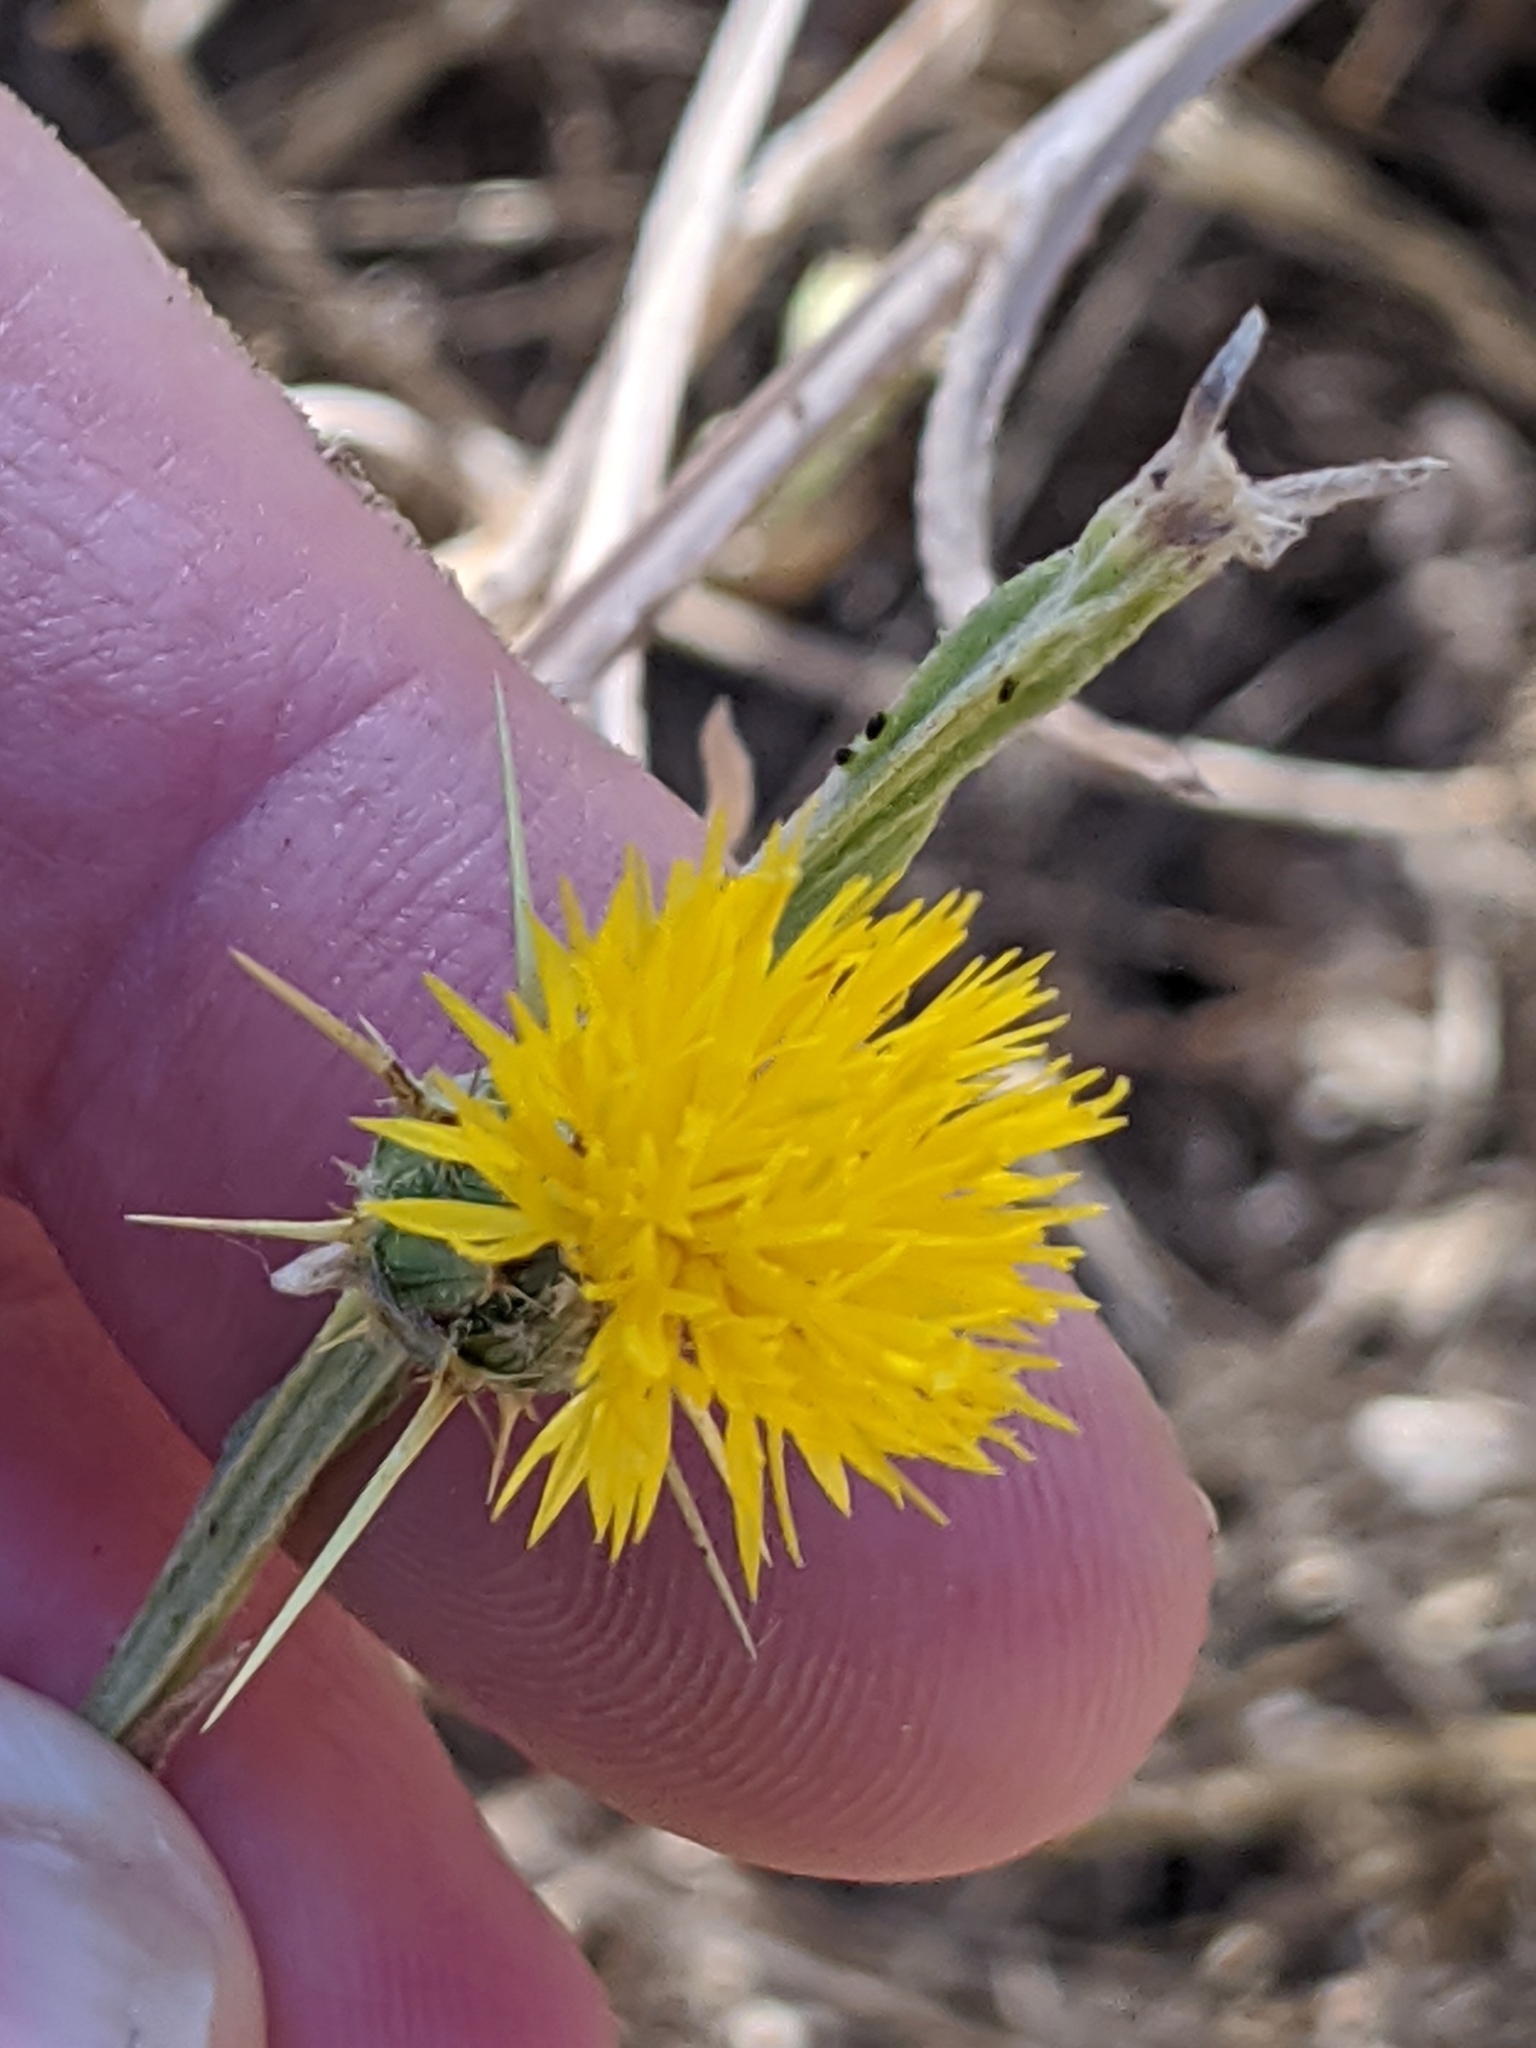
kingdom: Plantae
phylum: Tracheophyta
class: Magnoliopsida
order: Asterales
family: Asteraceae
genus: Centaurea
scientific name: Centaurea solstitialis
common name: Yellow star-thistle
